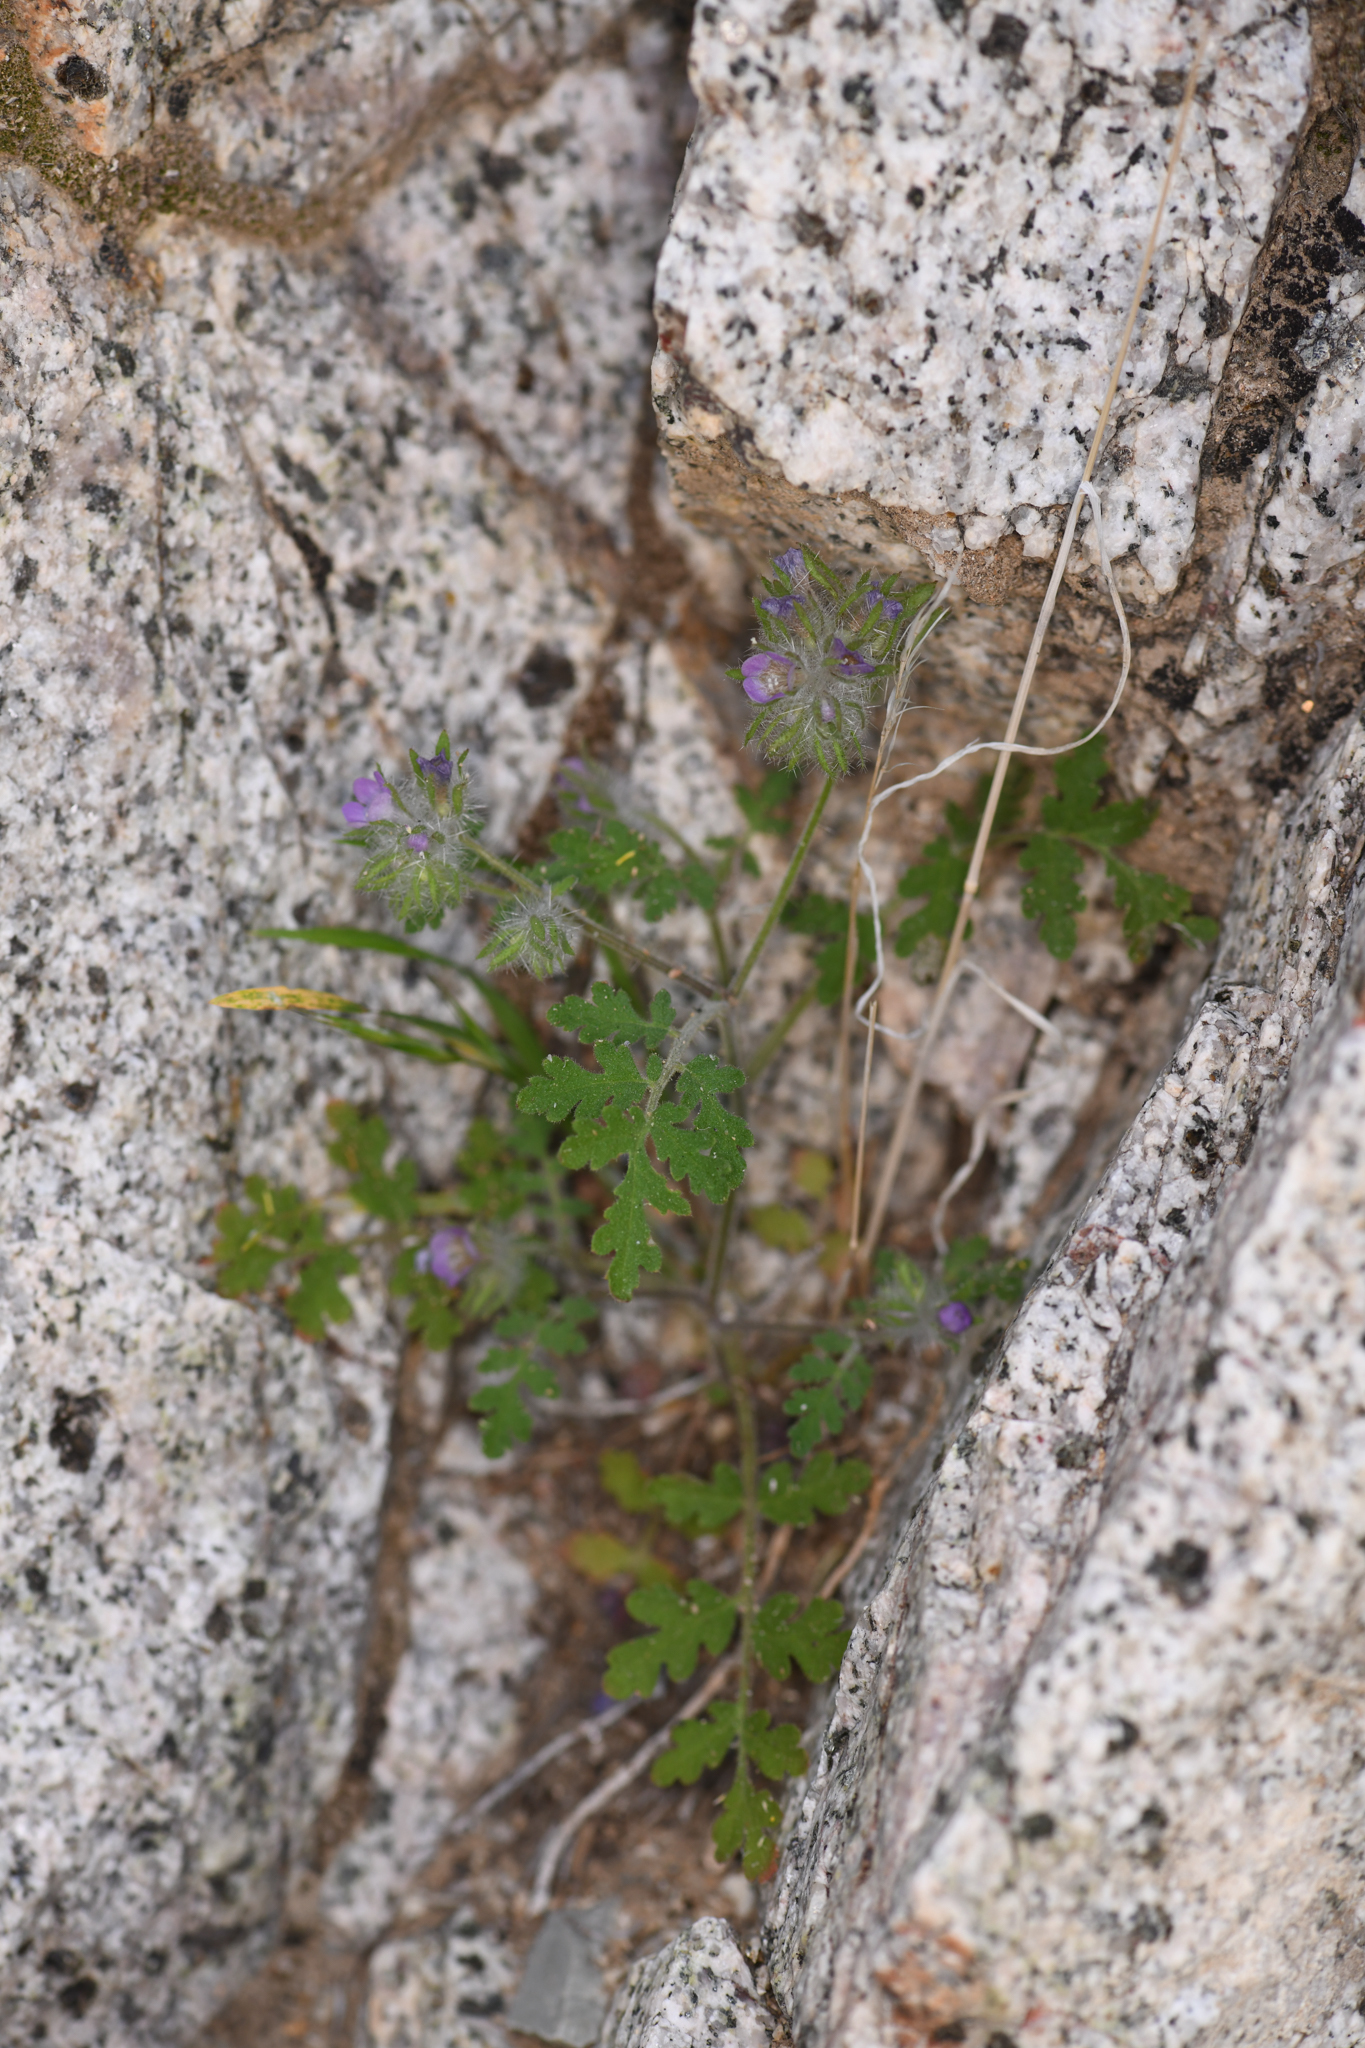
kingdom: Plantae
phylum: Tracheophyta
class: Magnoliopsida
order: Boraginales
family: Hydrophyllaceae
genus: Phacelia
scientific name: Phacelia cryptantha
